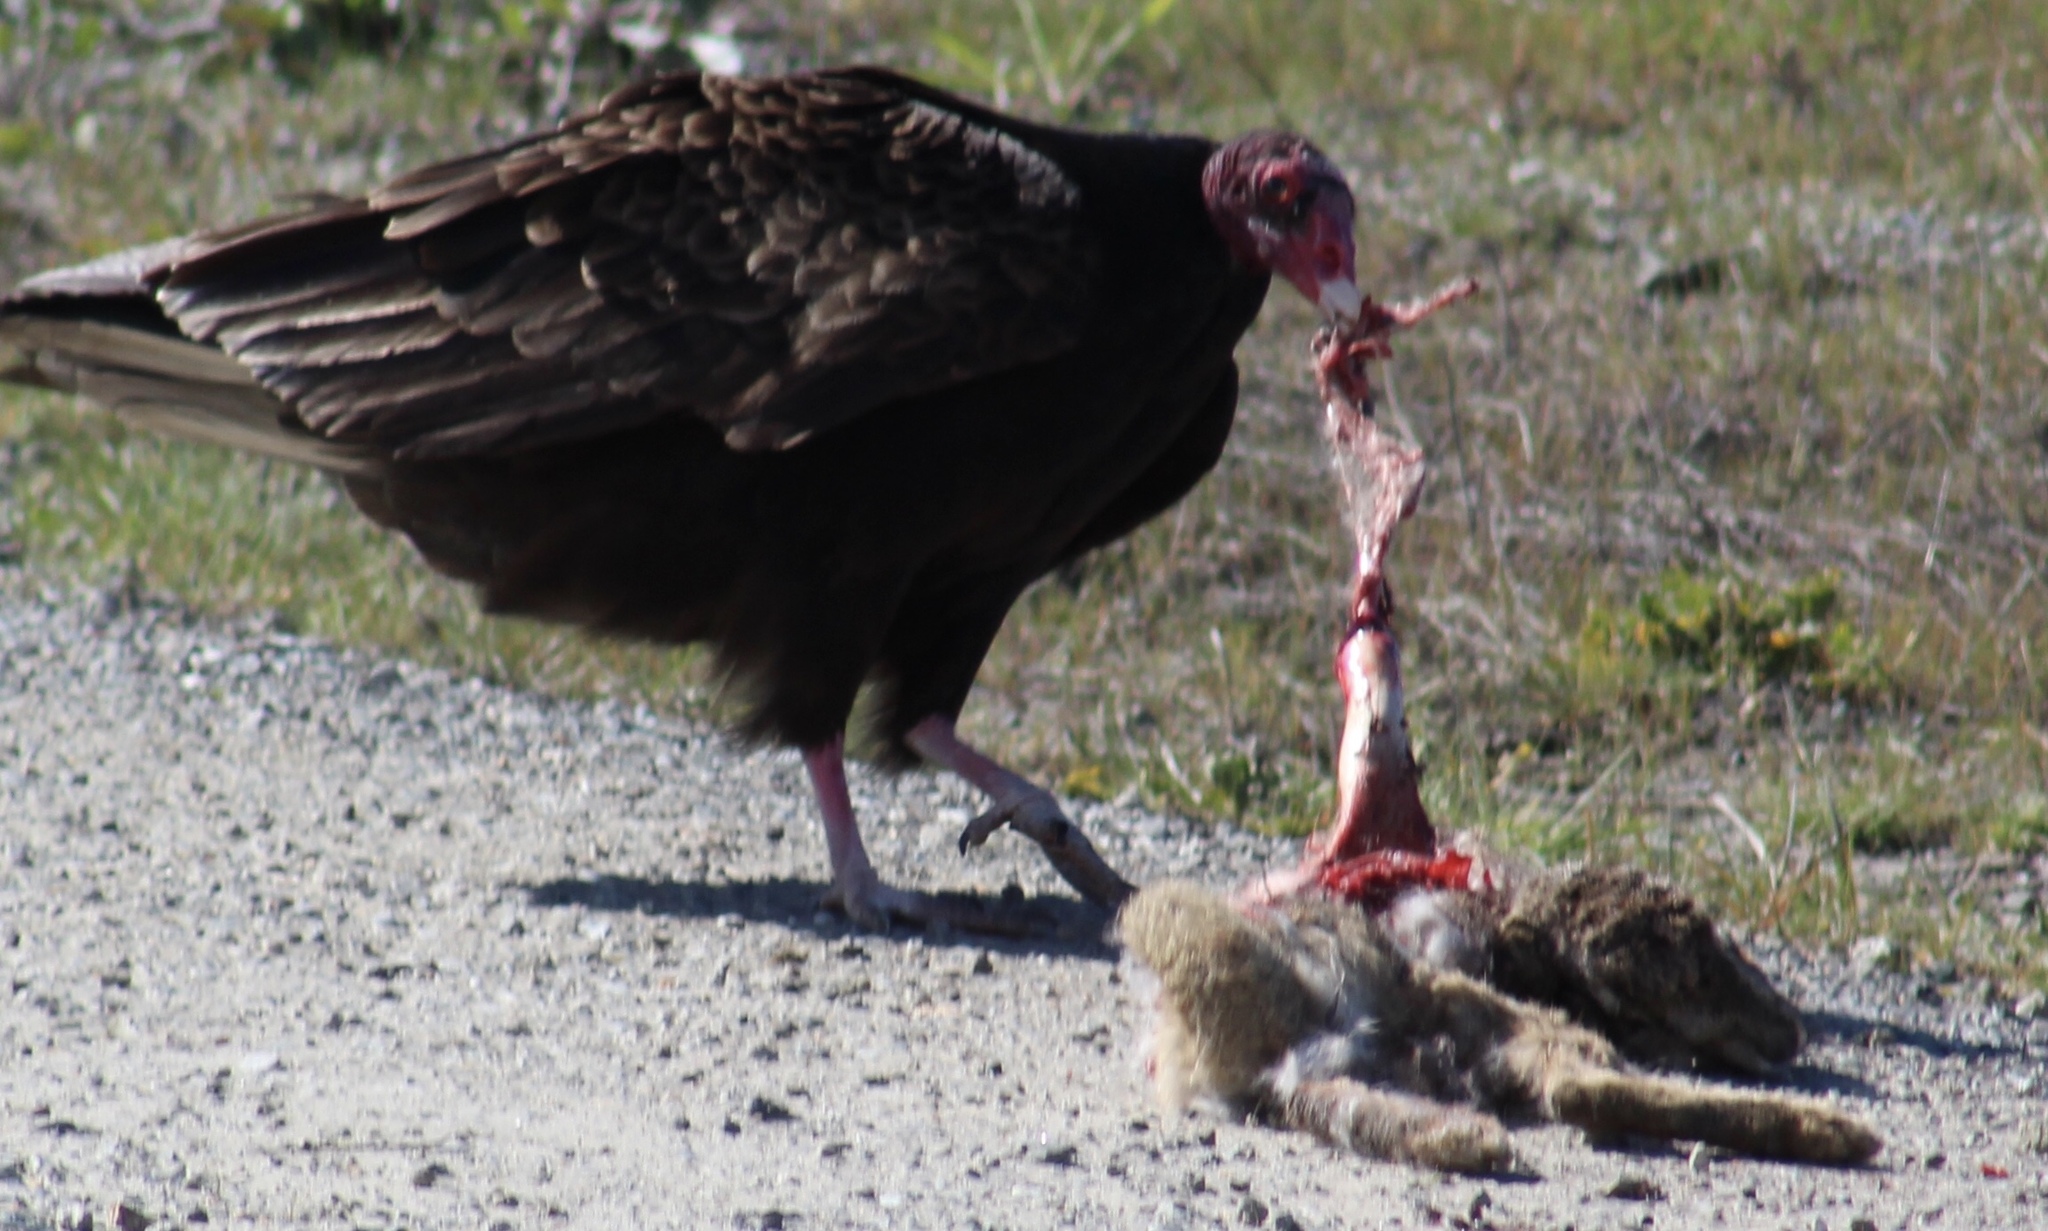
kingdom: Animalia
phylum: Chordata
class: Aves
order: Accipitriformes
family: Cathartidae
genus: Cathartes
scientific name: Cathartes aura
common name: Turkey vulture
